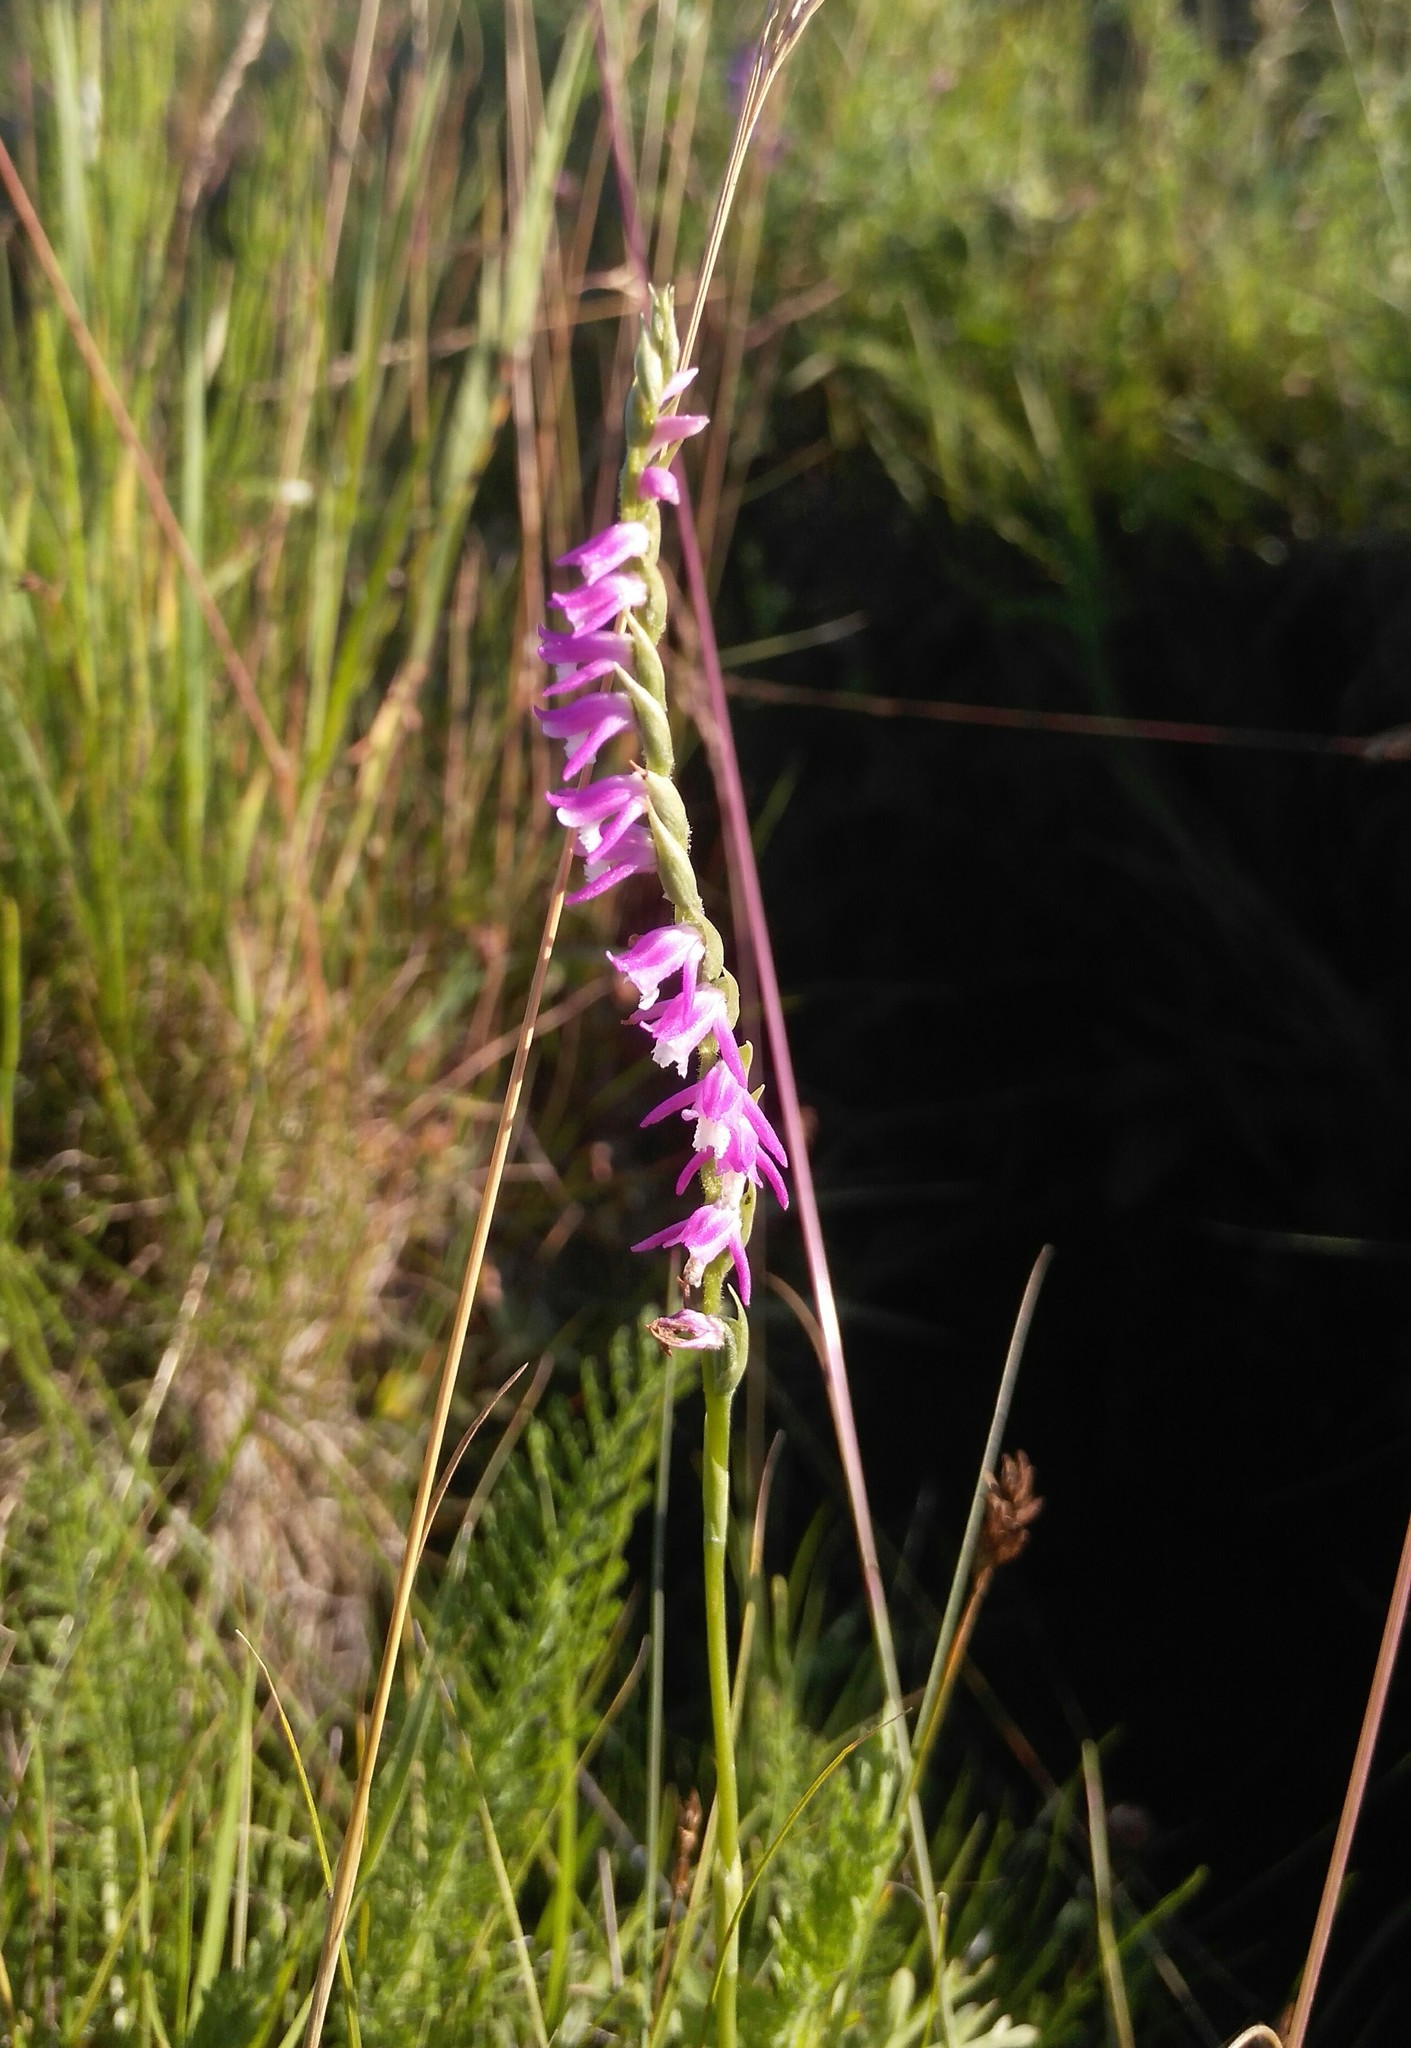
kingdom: Plantae
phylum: Tracheophyta
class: Liliopsida
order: Asparagales
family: Orchidaceae
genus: Spiranthes
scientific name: Spiranthes australis
